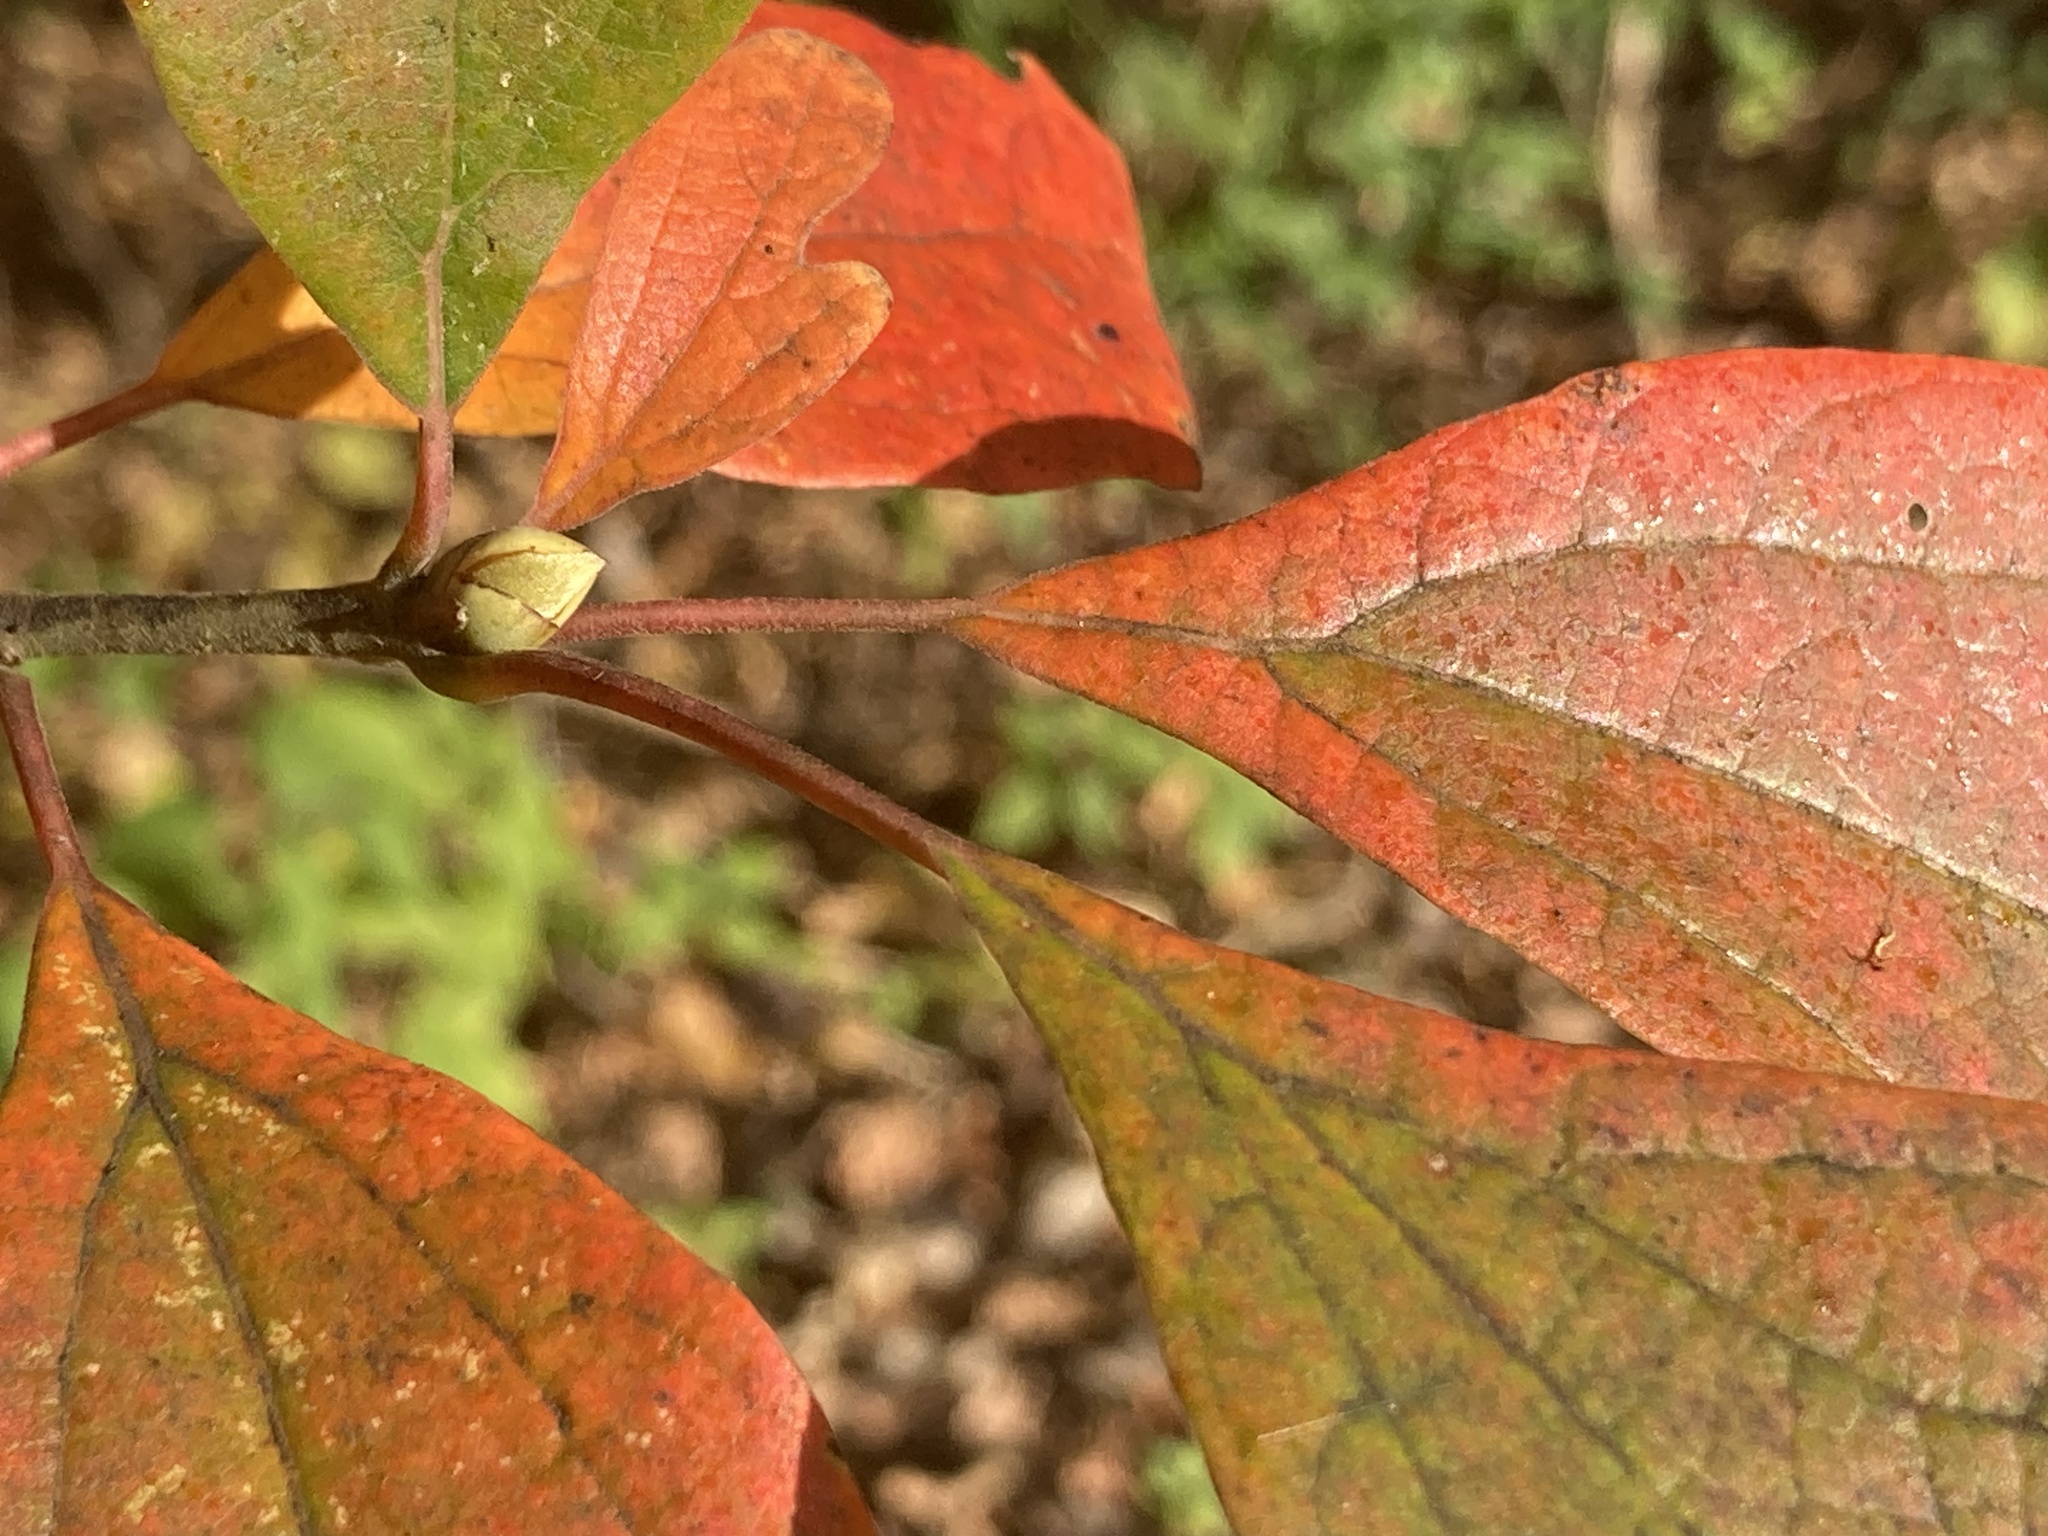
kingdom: Plantae
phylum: Tracheophyta
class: Magnoliopsida
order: Laurales
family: Lauraceae
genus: Sassafras
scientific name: Sassafras albidum
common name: Sassafras
